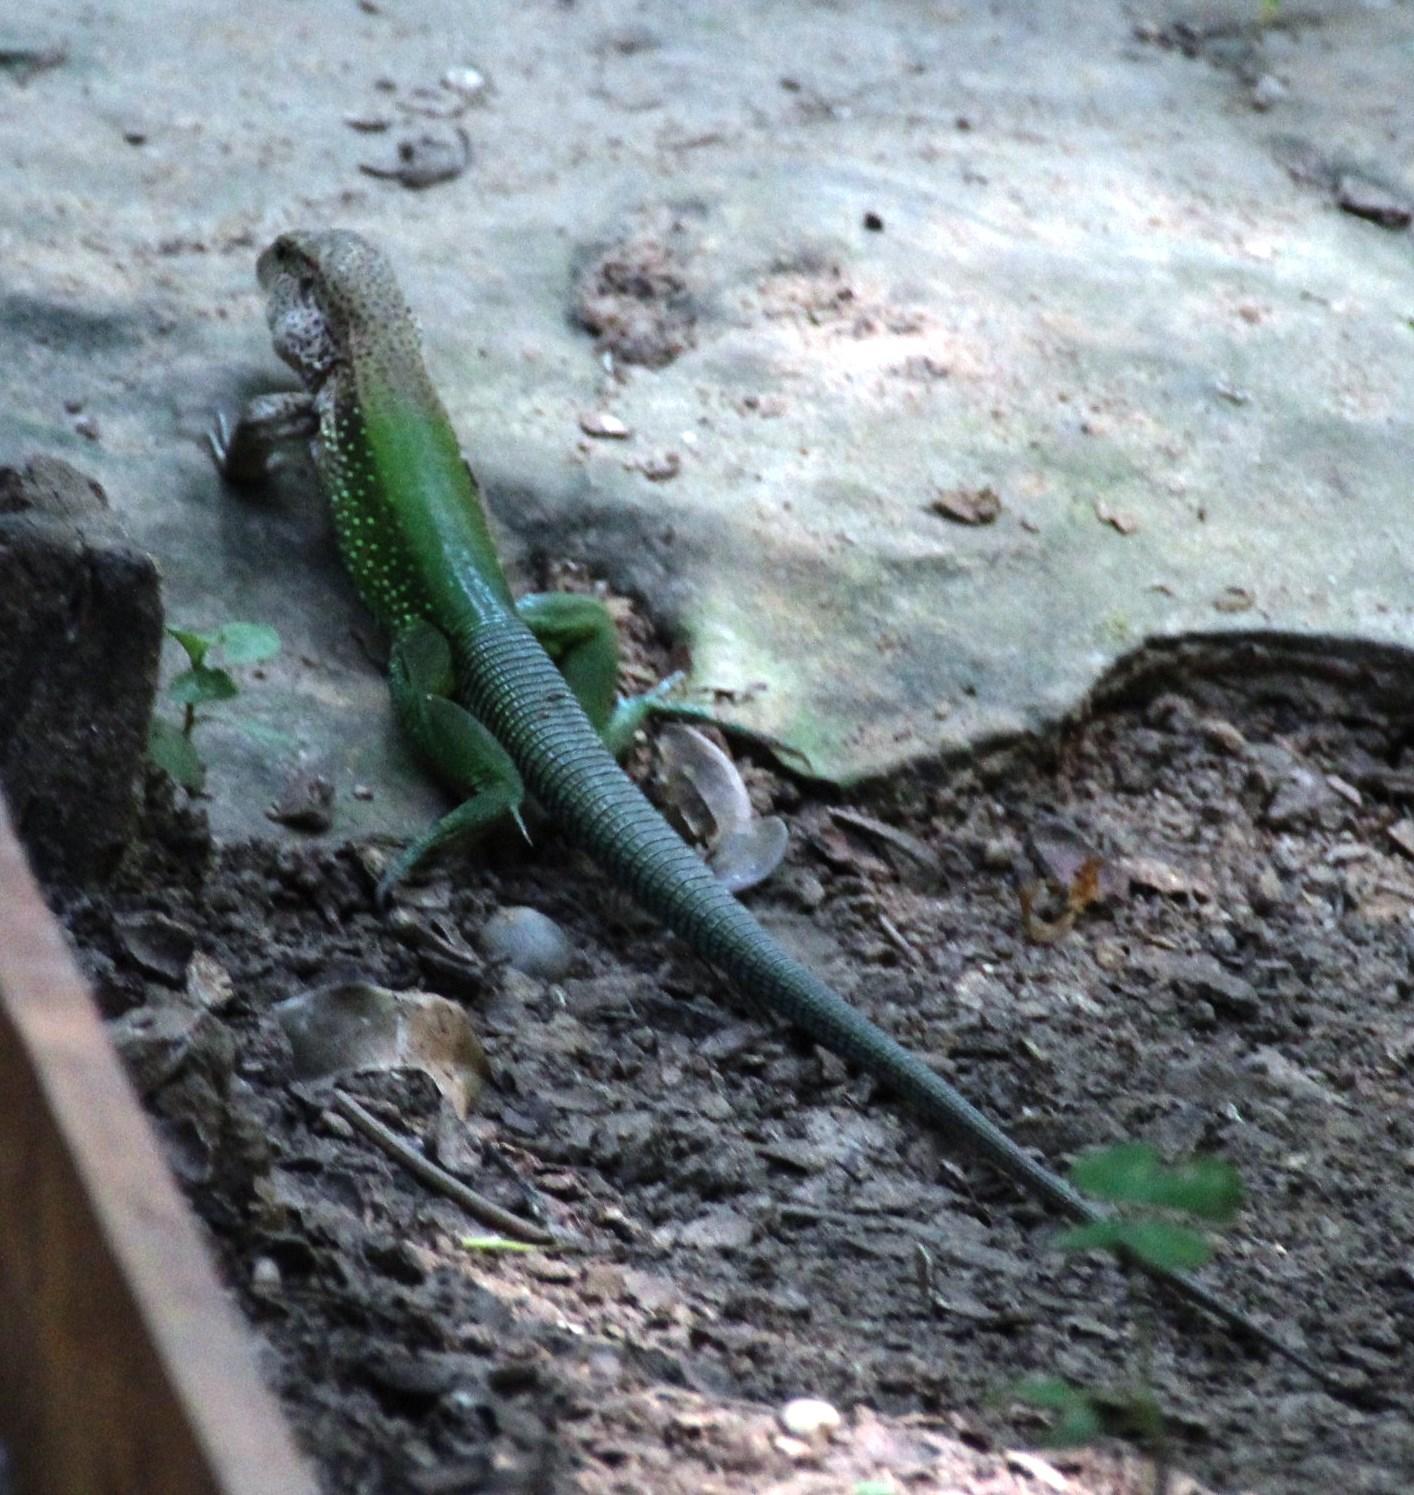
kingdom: Animalia
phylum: Chordata
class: Squamata
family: Teiidae
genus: Ameiva
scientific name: Ameiva ameiva
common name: Giant ameiva
